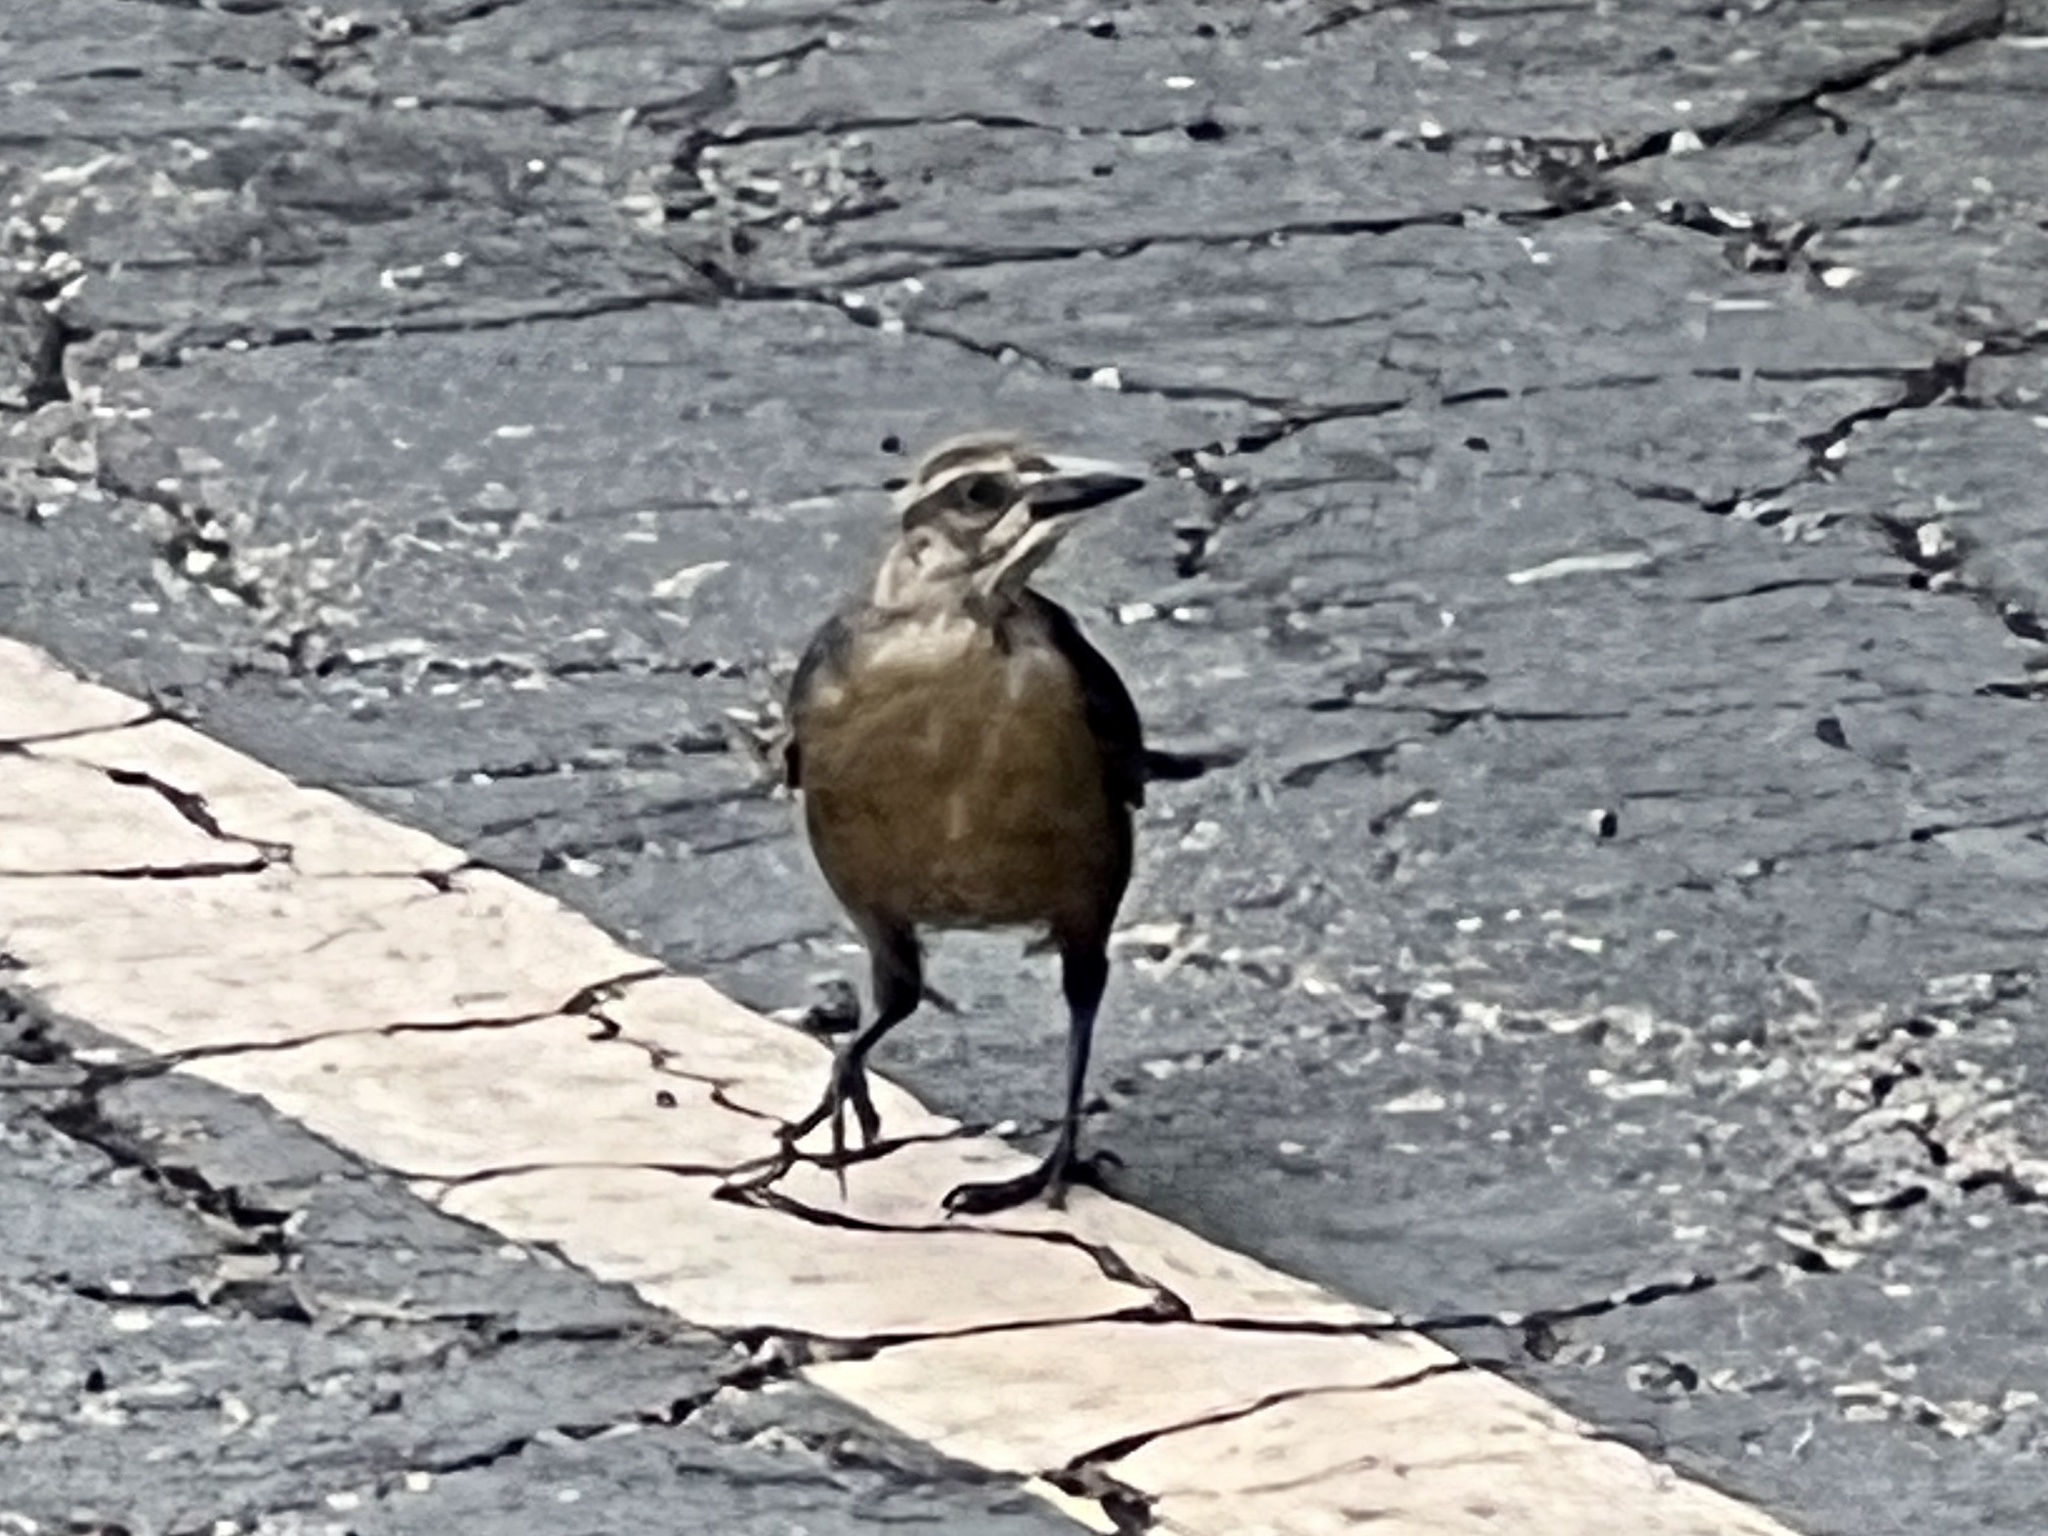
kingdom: Animalia
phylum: Chordata
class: Aves
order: Passeriformes
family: Icteridae
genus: Quiscalus
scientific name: Quiscalus mexicanus
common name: Great-tailed grackle
